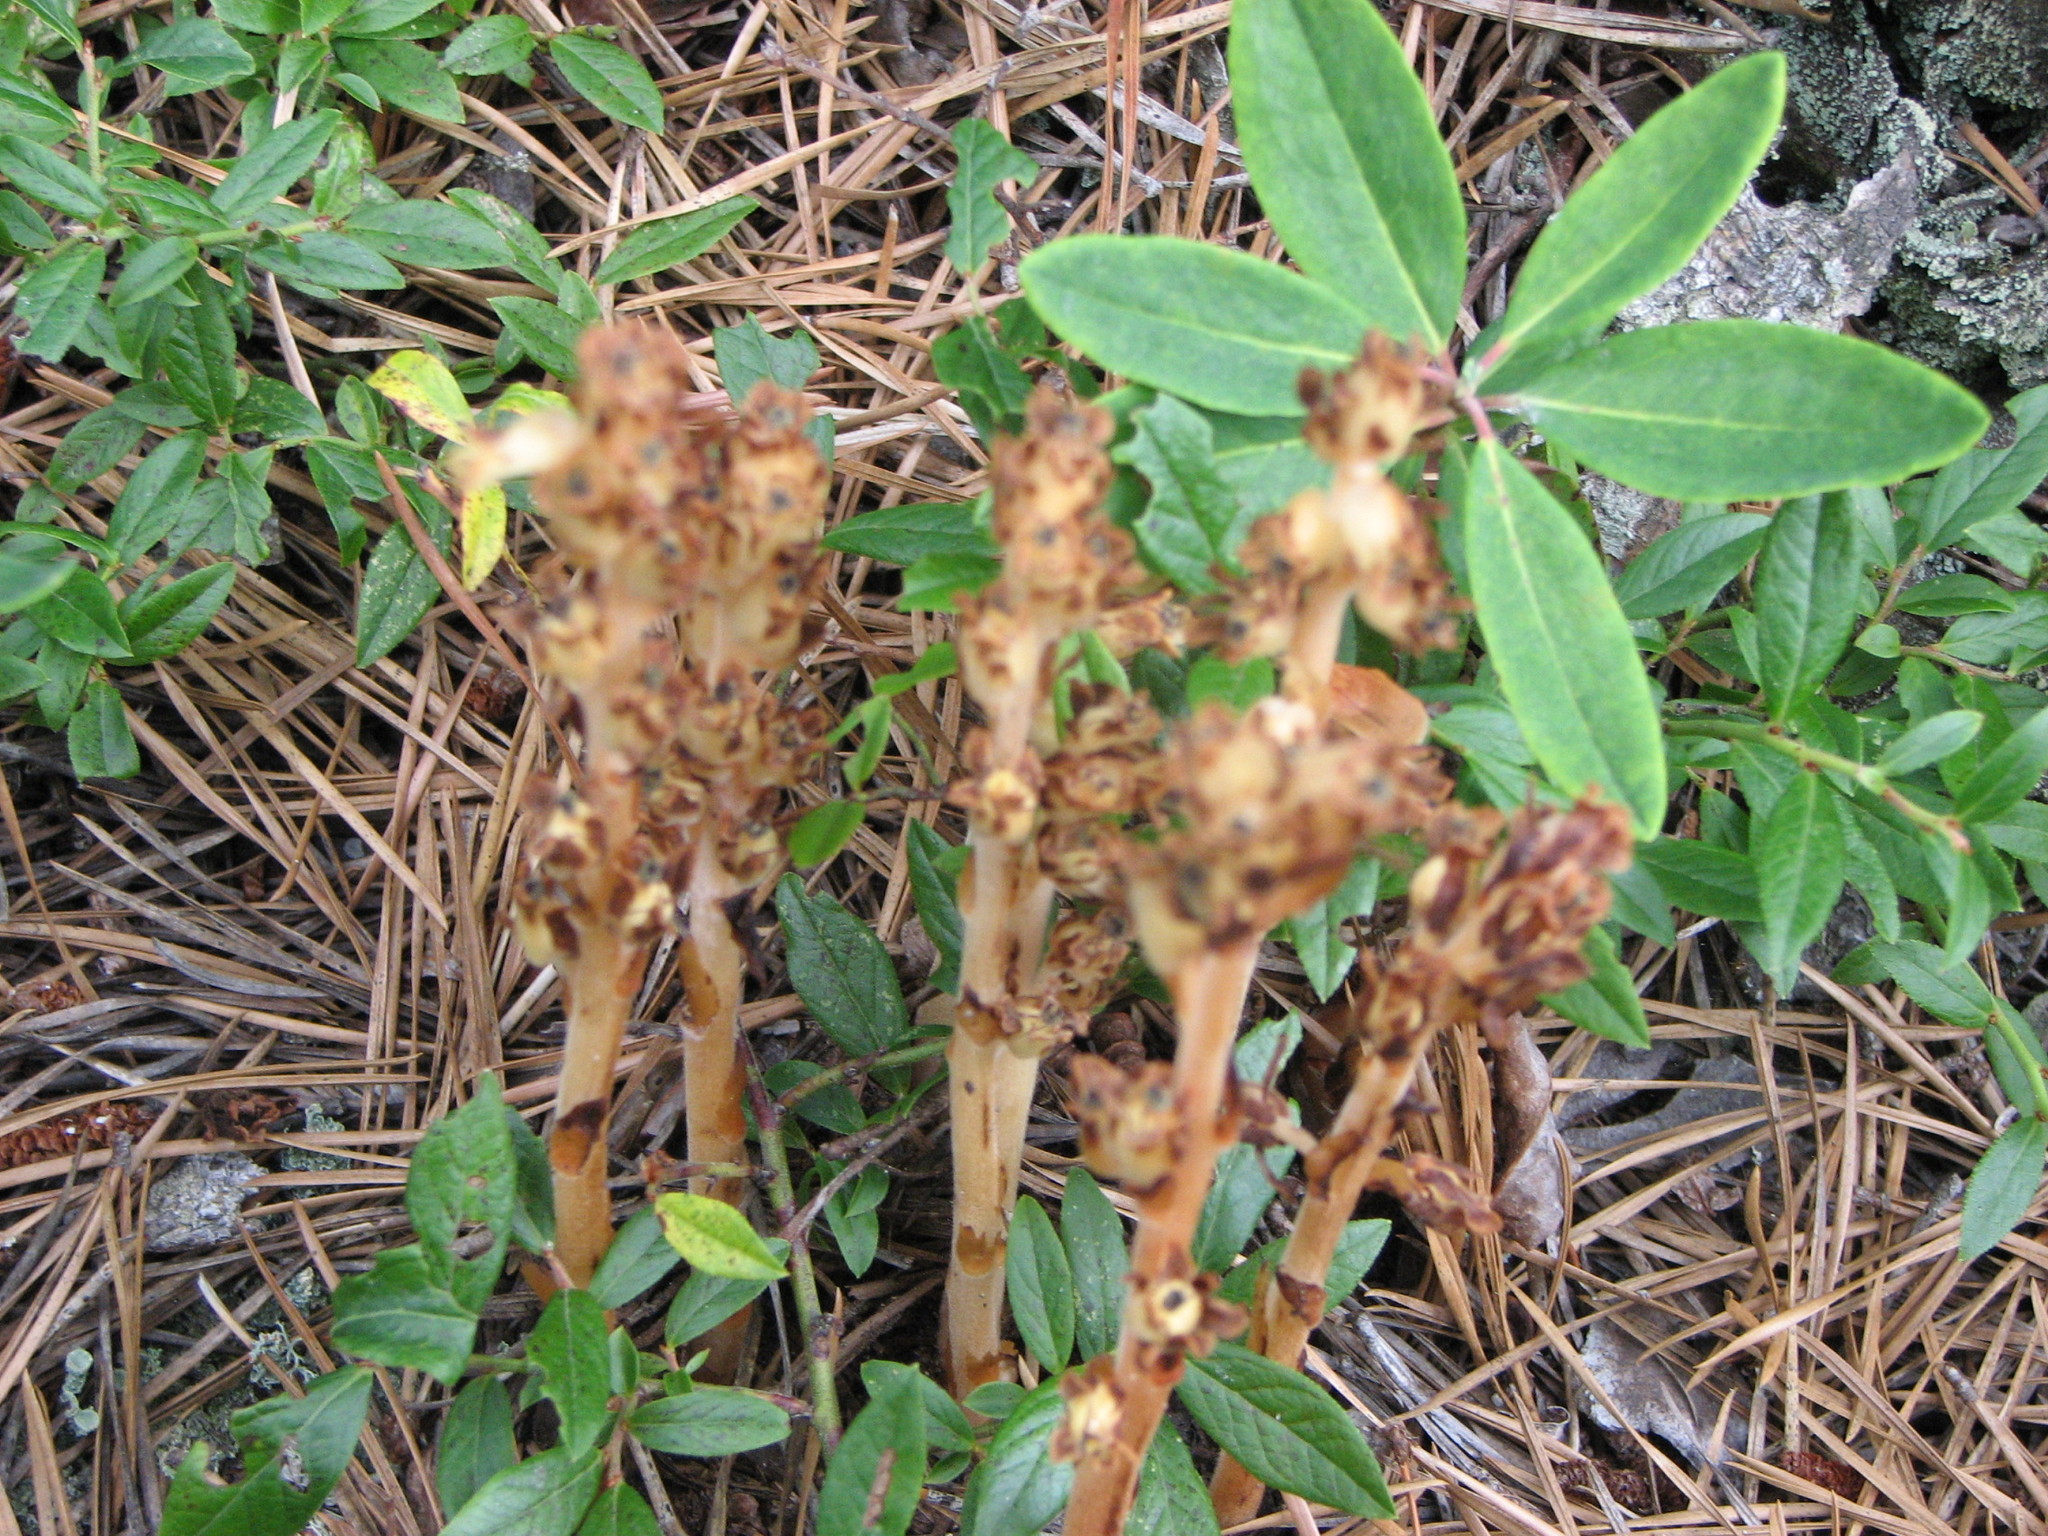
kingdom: Plantae
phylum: Tracheophyta
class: Magnoliopsida
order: Ericales
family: Ericaceae
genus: Hypopitys
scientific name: Hypopitys monotropa
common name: Yellow bird's-nest
